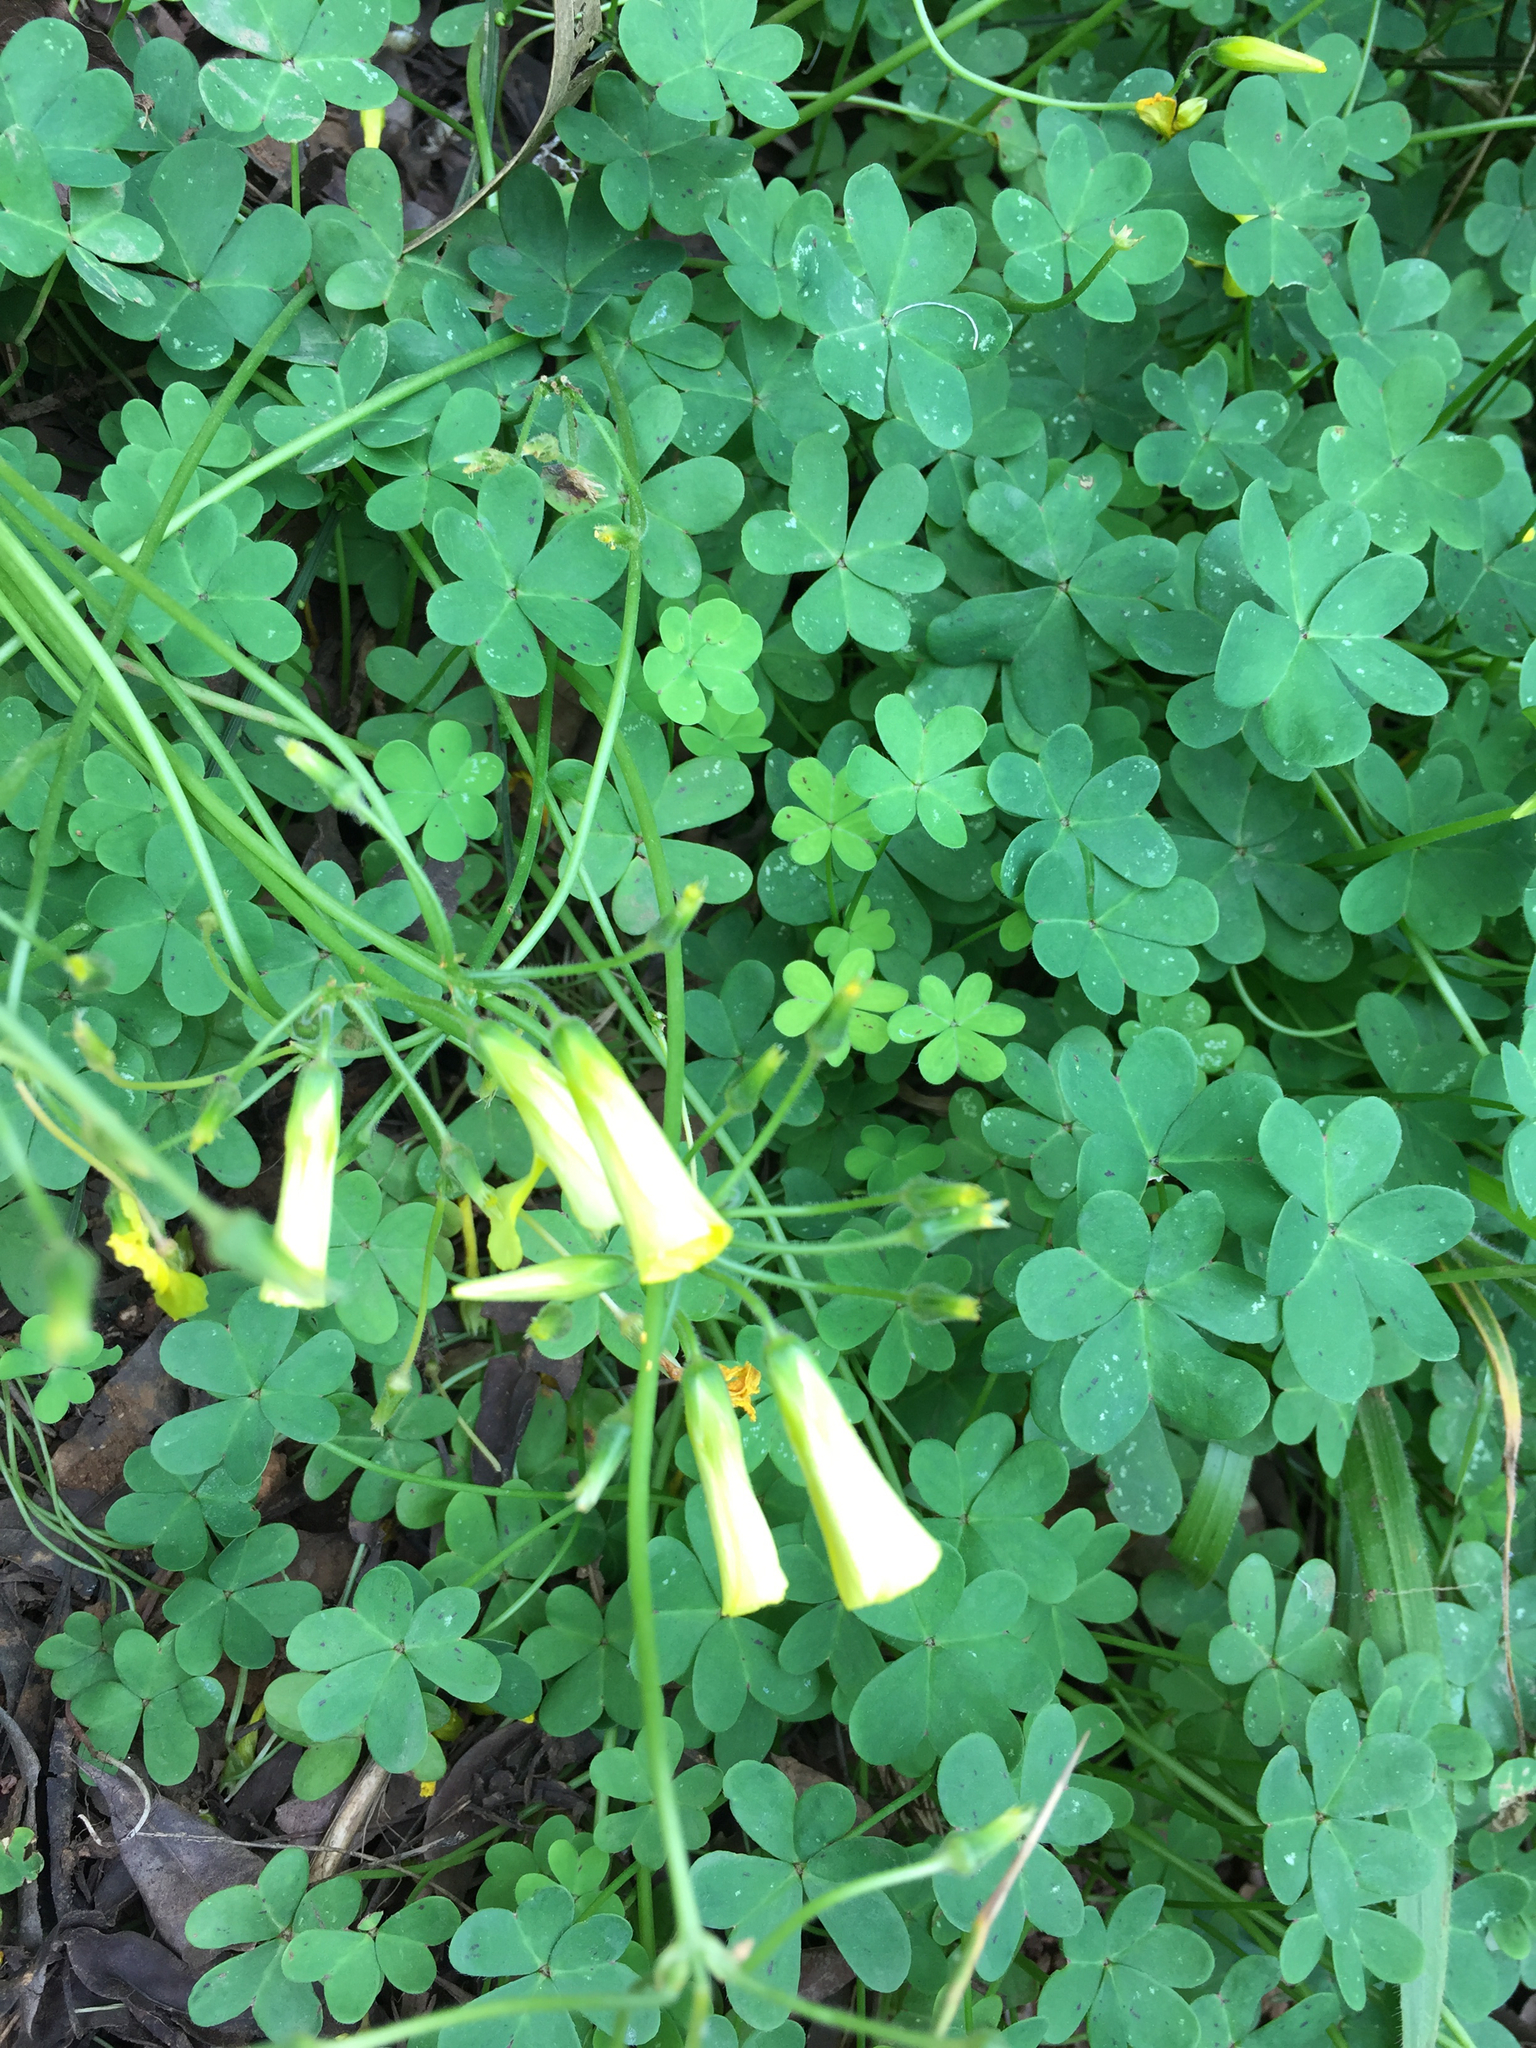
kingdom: Plantae
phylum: Tracheophyta
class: Magnoliopsida
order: Oxalidales
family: Oxalidaceae
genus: Oxalis
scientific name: Oxalis pes-caprae
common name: Bermuda-buttercup
